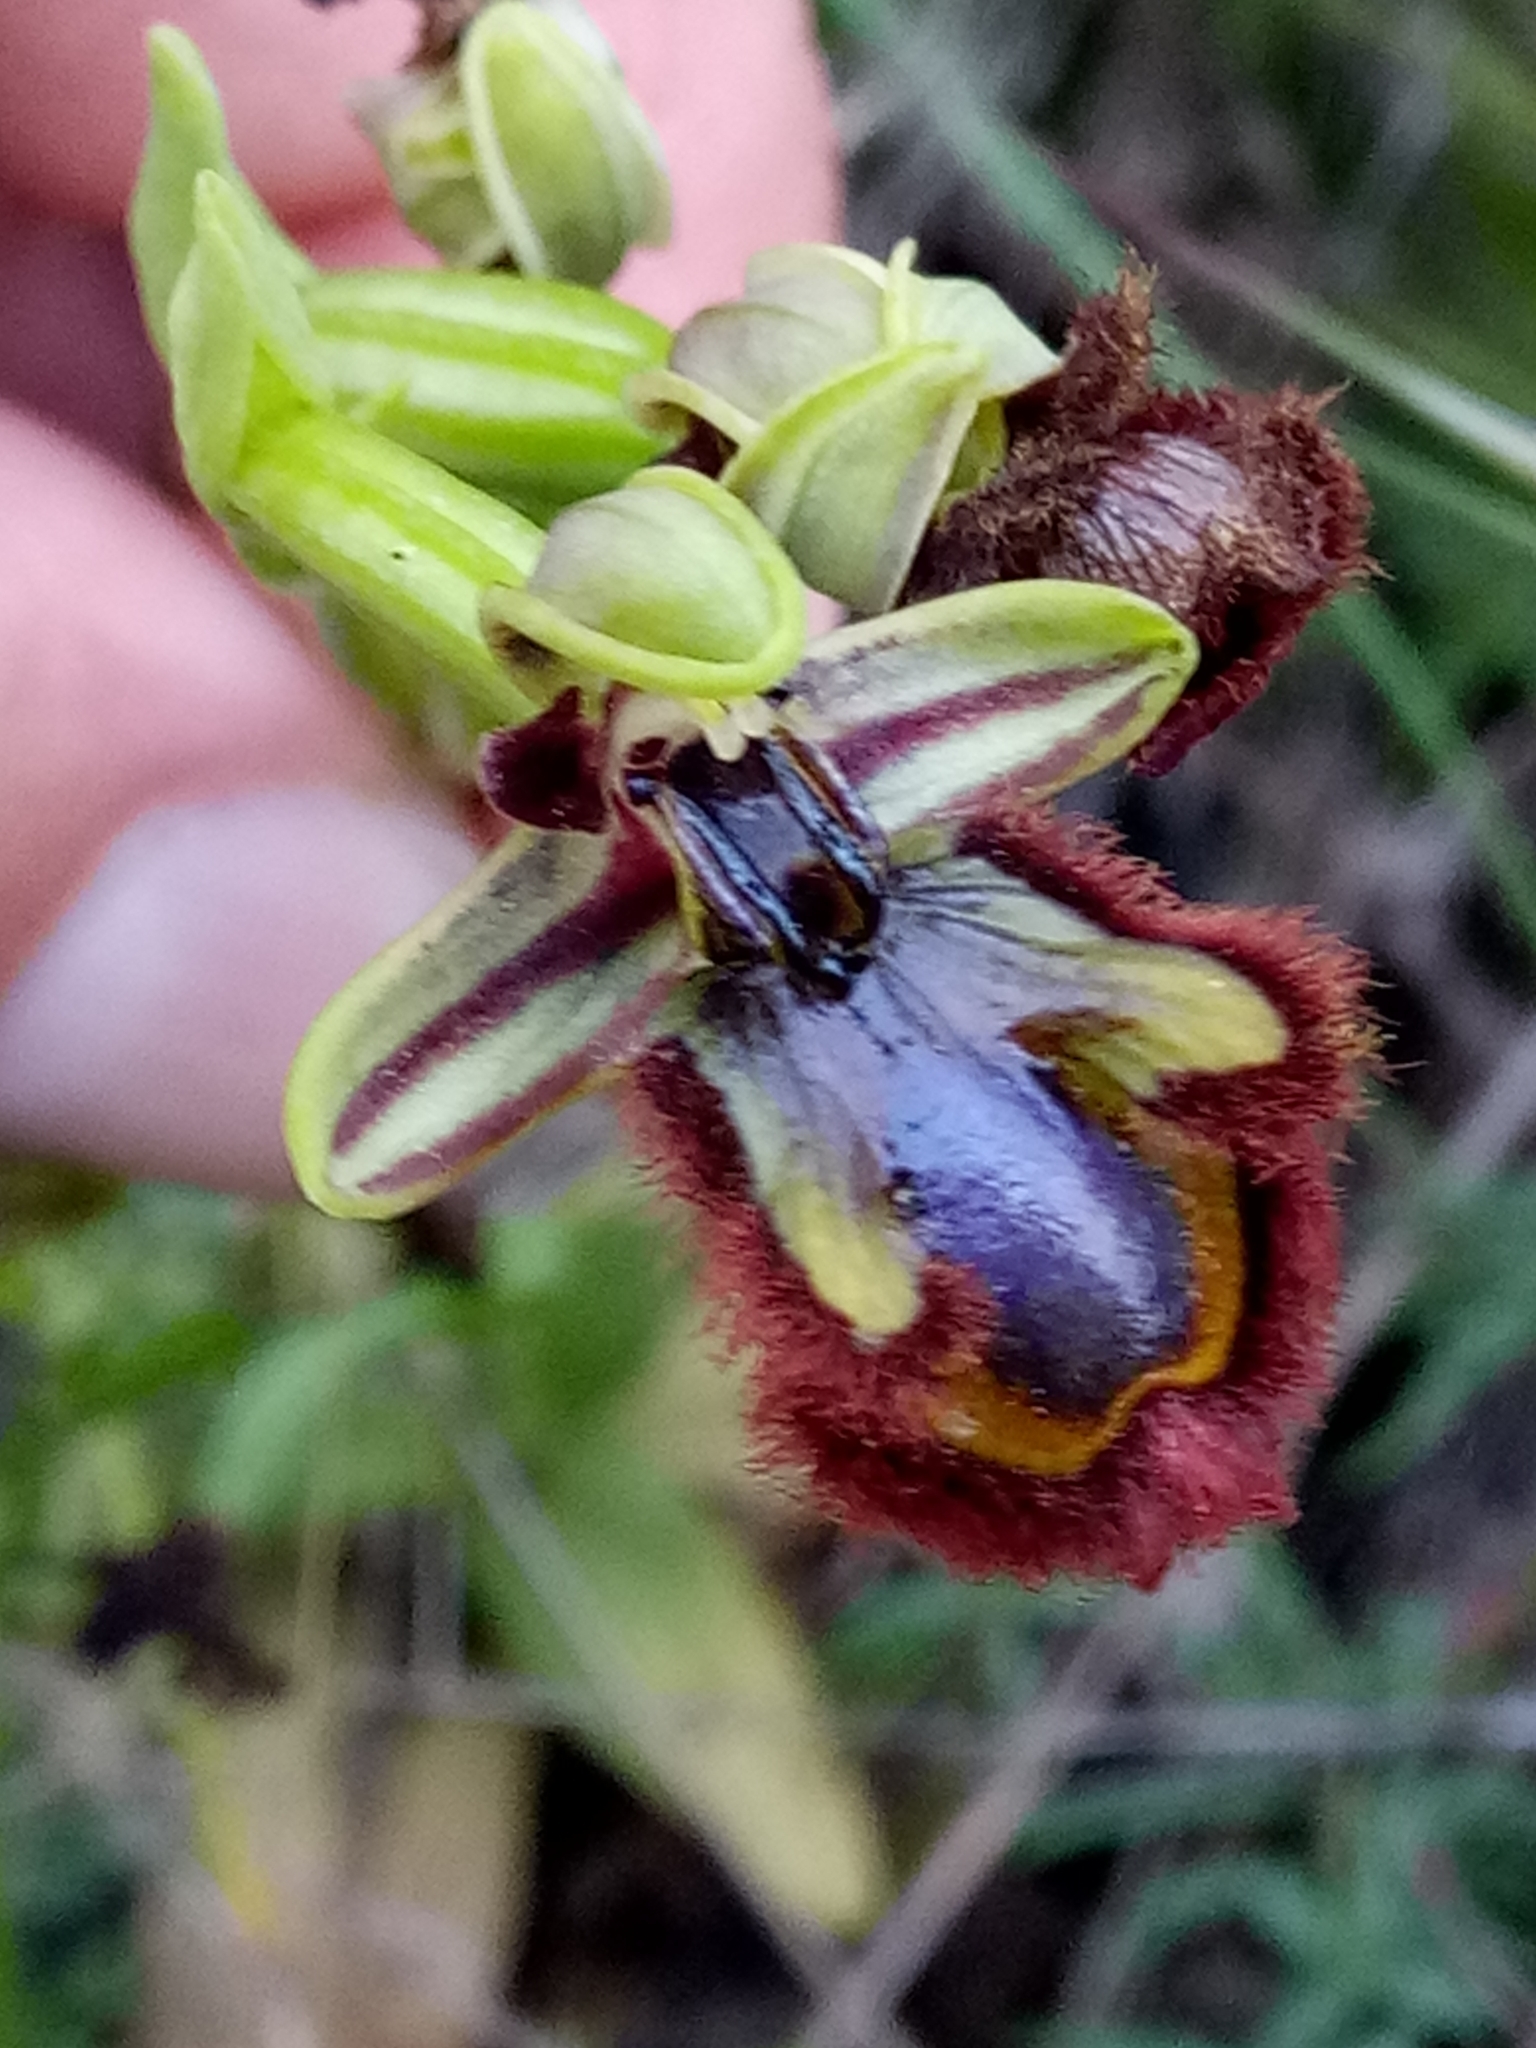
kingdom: Plantae
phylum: Tracheophyta
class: Liliopsida
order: Asparagales
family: Orchidaceae
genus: Ophrys
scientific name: Ophrys speculum
